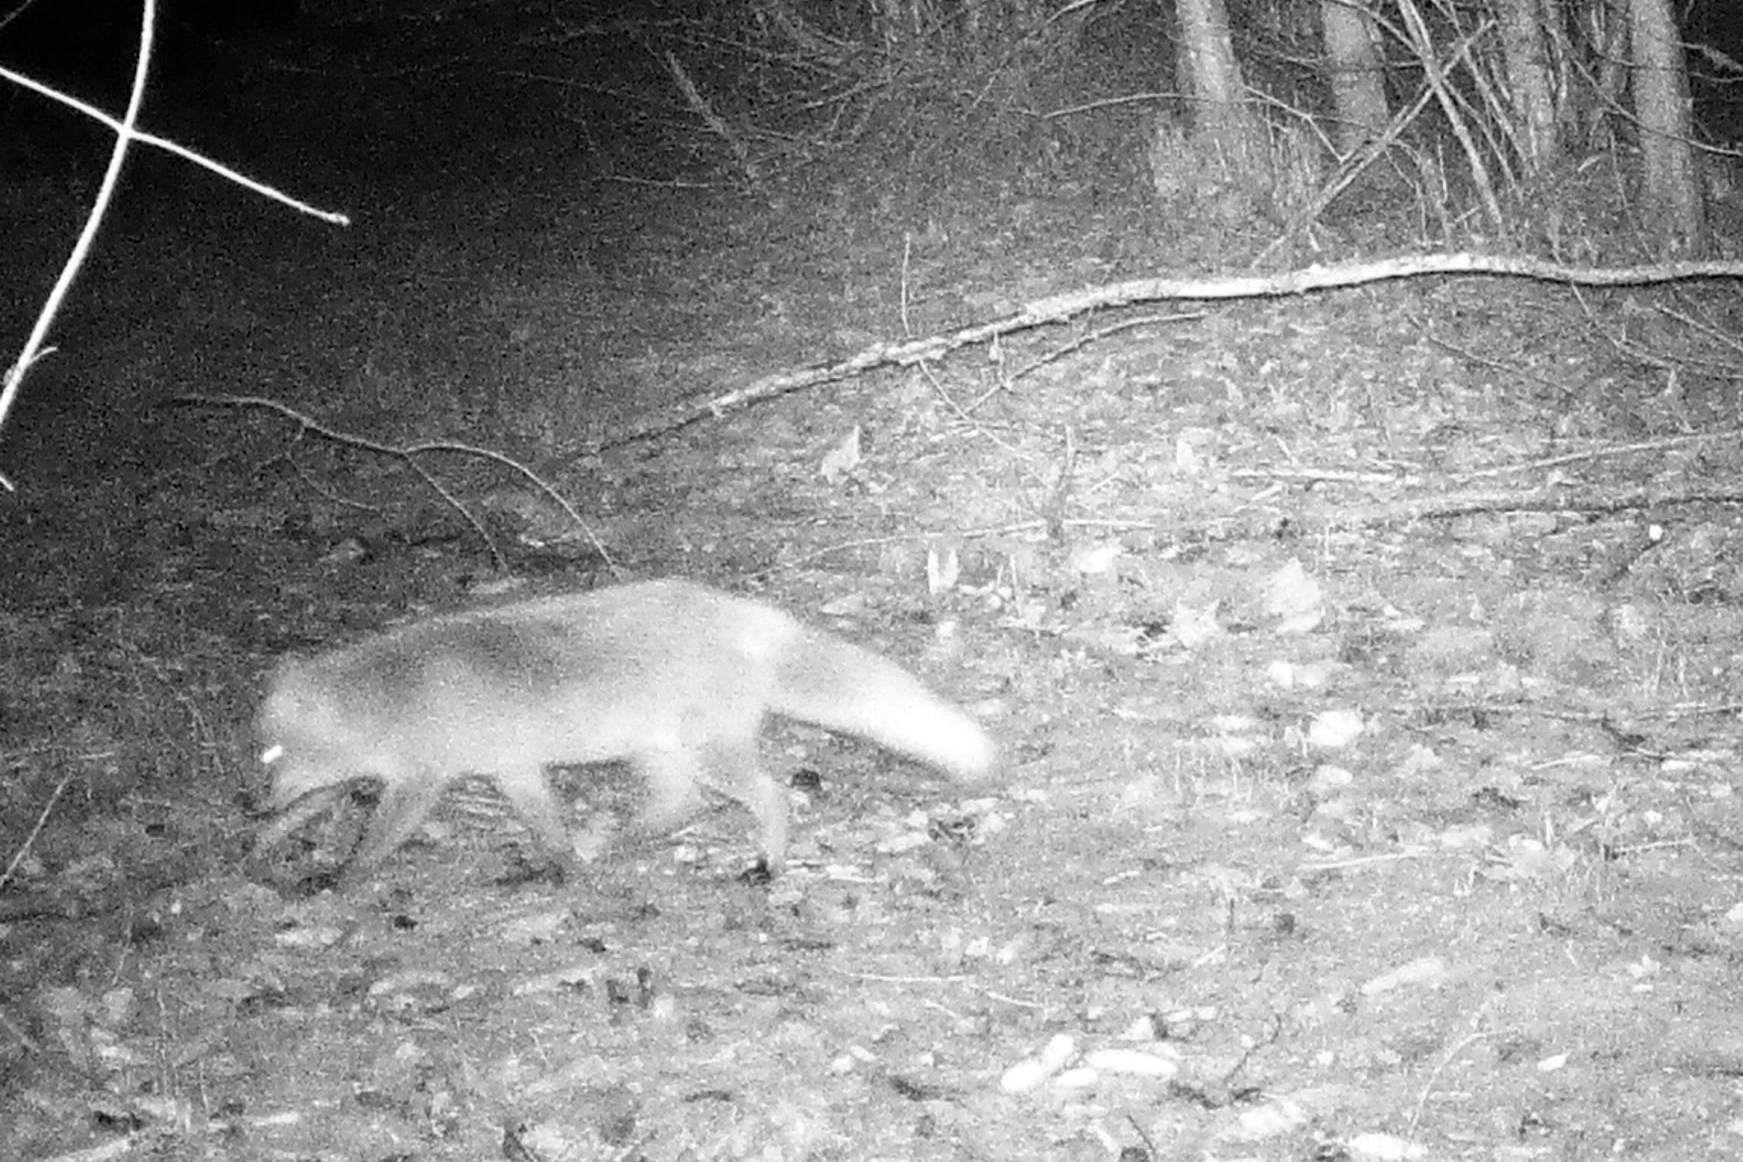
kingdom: Animalia
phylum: Chordata
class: Mammalia
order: Carnivora
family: Canidae
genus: Vulpes
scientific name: Vulpes vulpes
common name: Red fox
